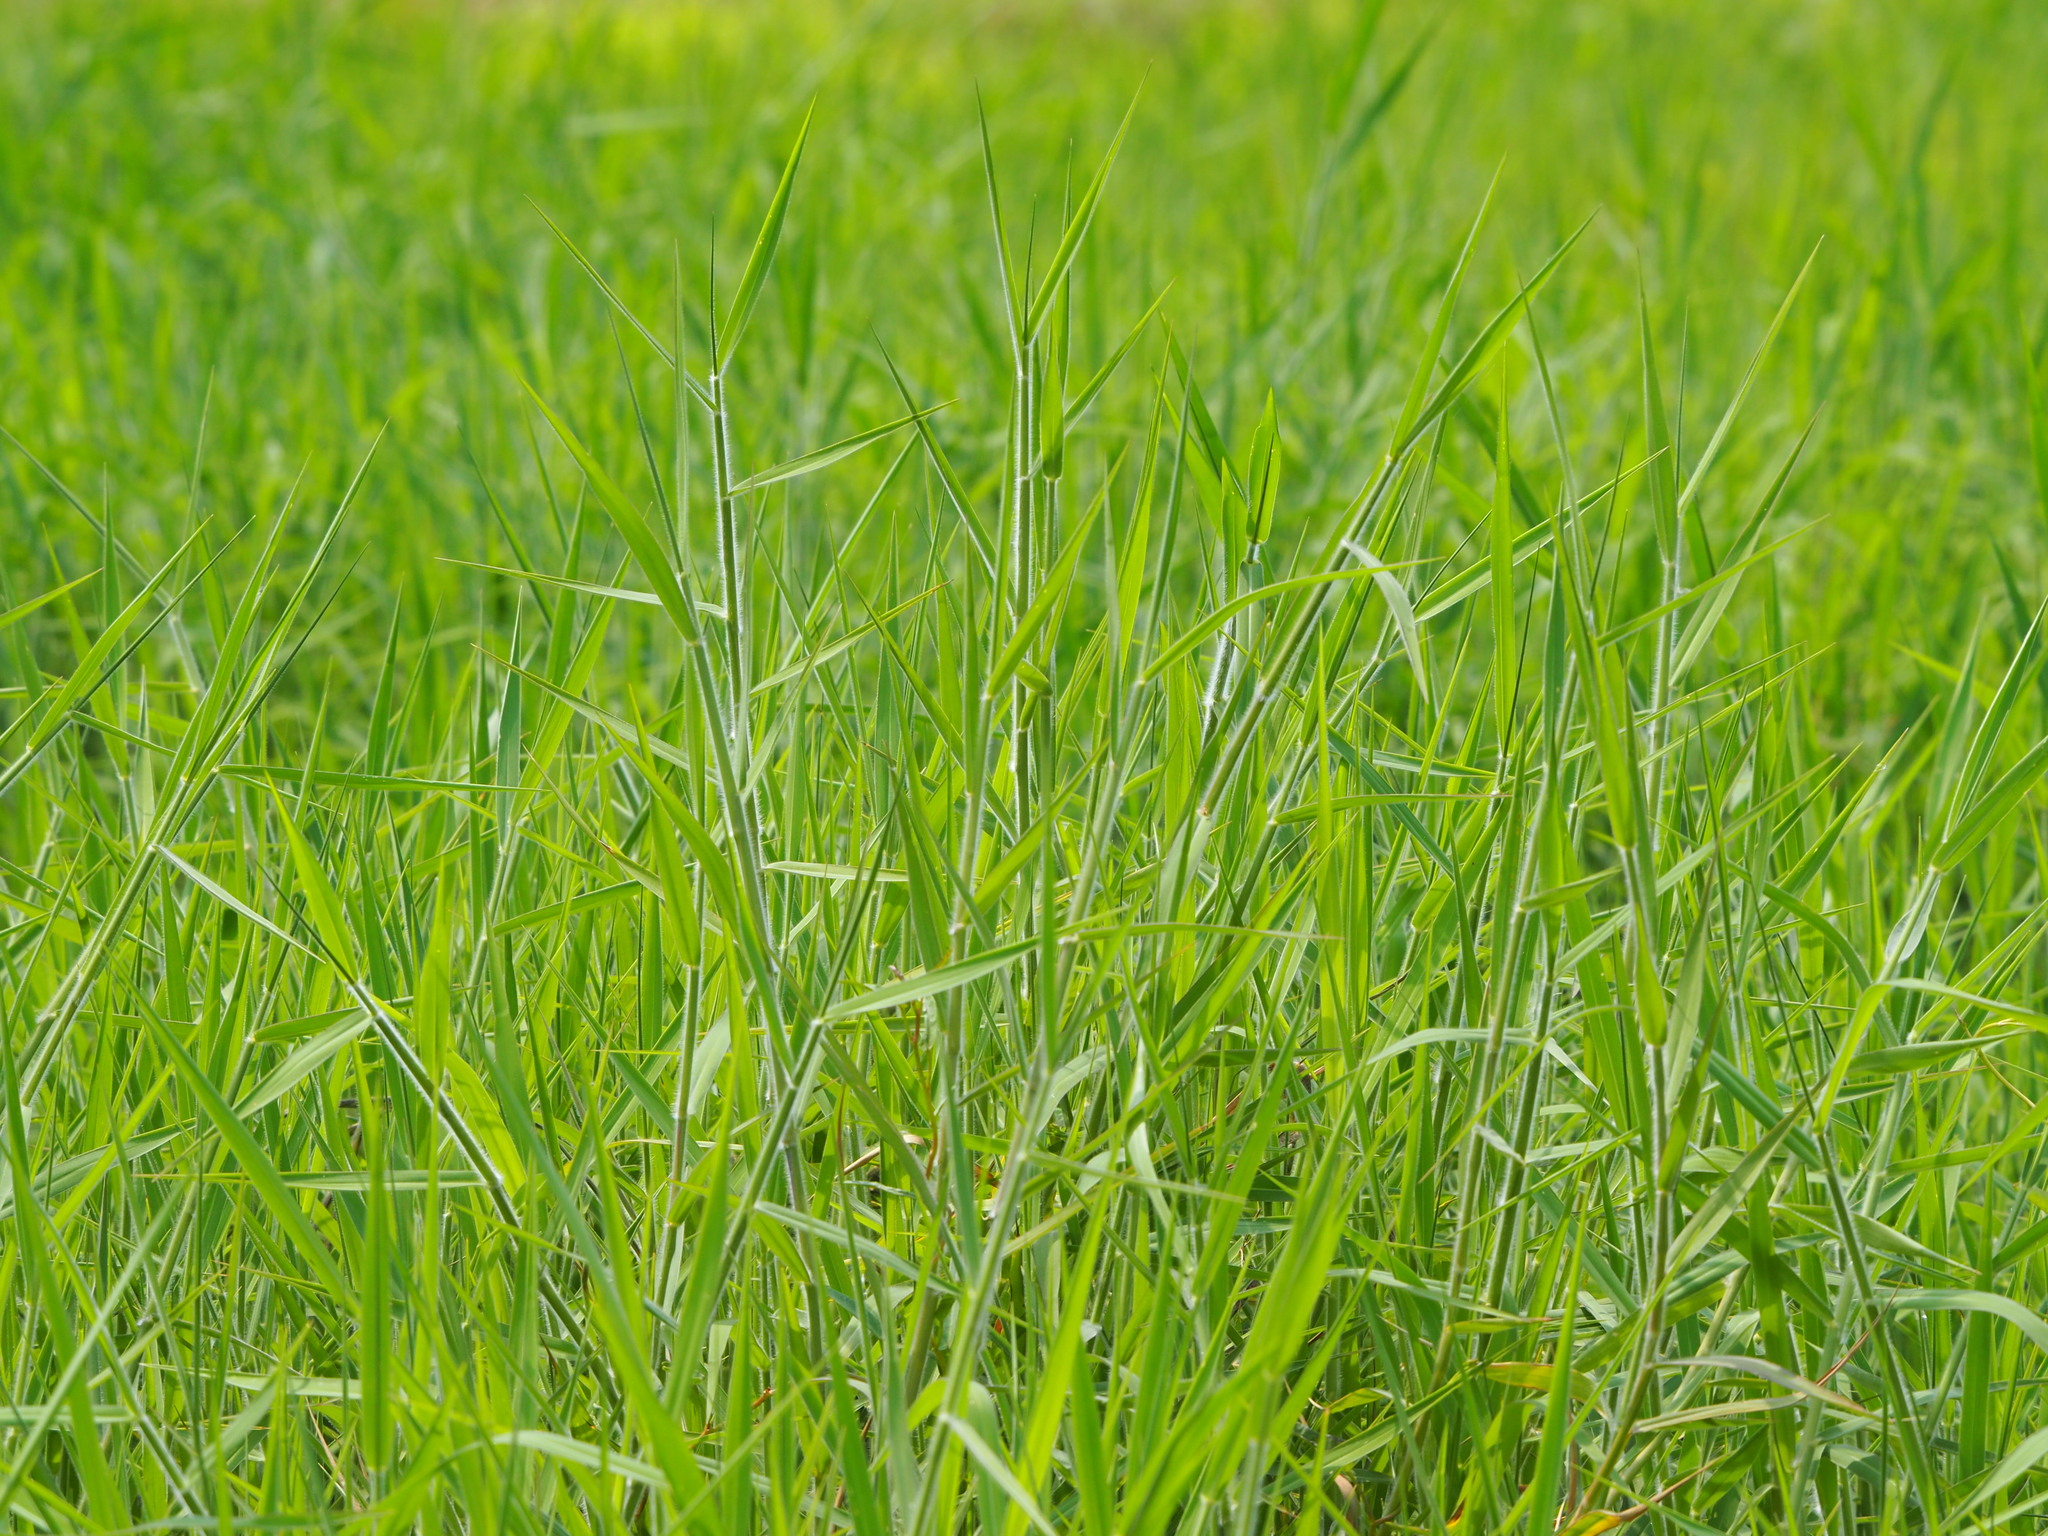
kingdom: Plantae
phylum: Tracheophyta
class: Liliopsida
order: Poales
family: Poaceae
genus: Urochloa
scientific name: Urochloa mutica
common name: Para grass
